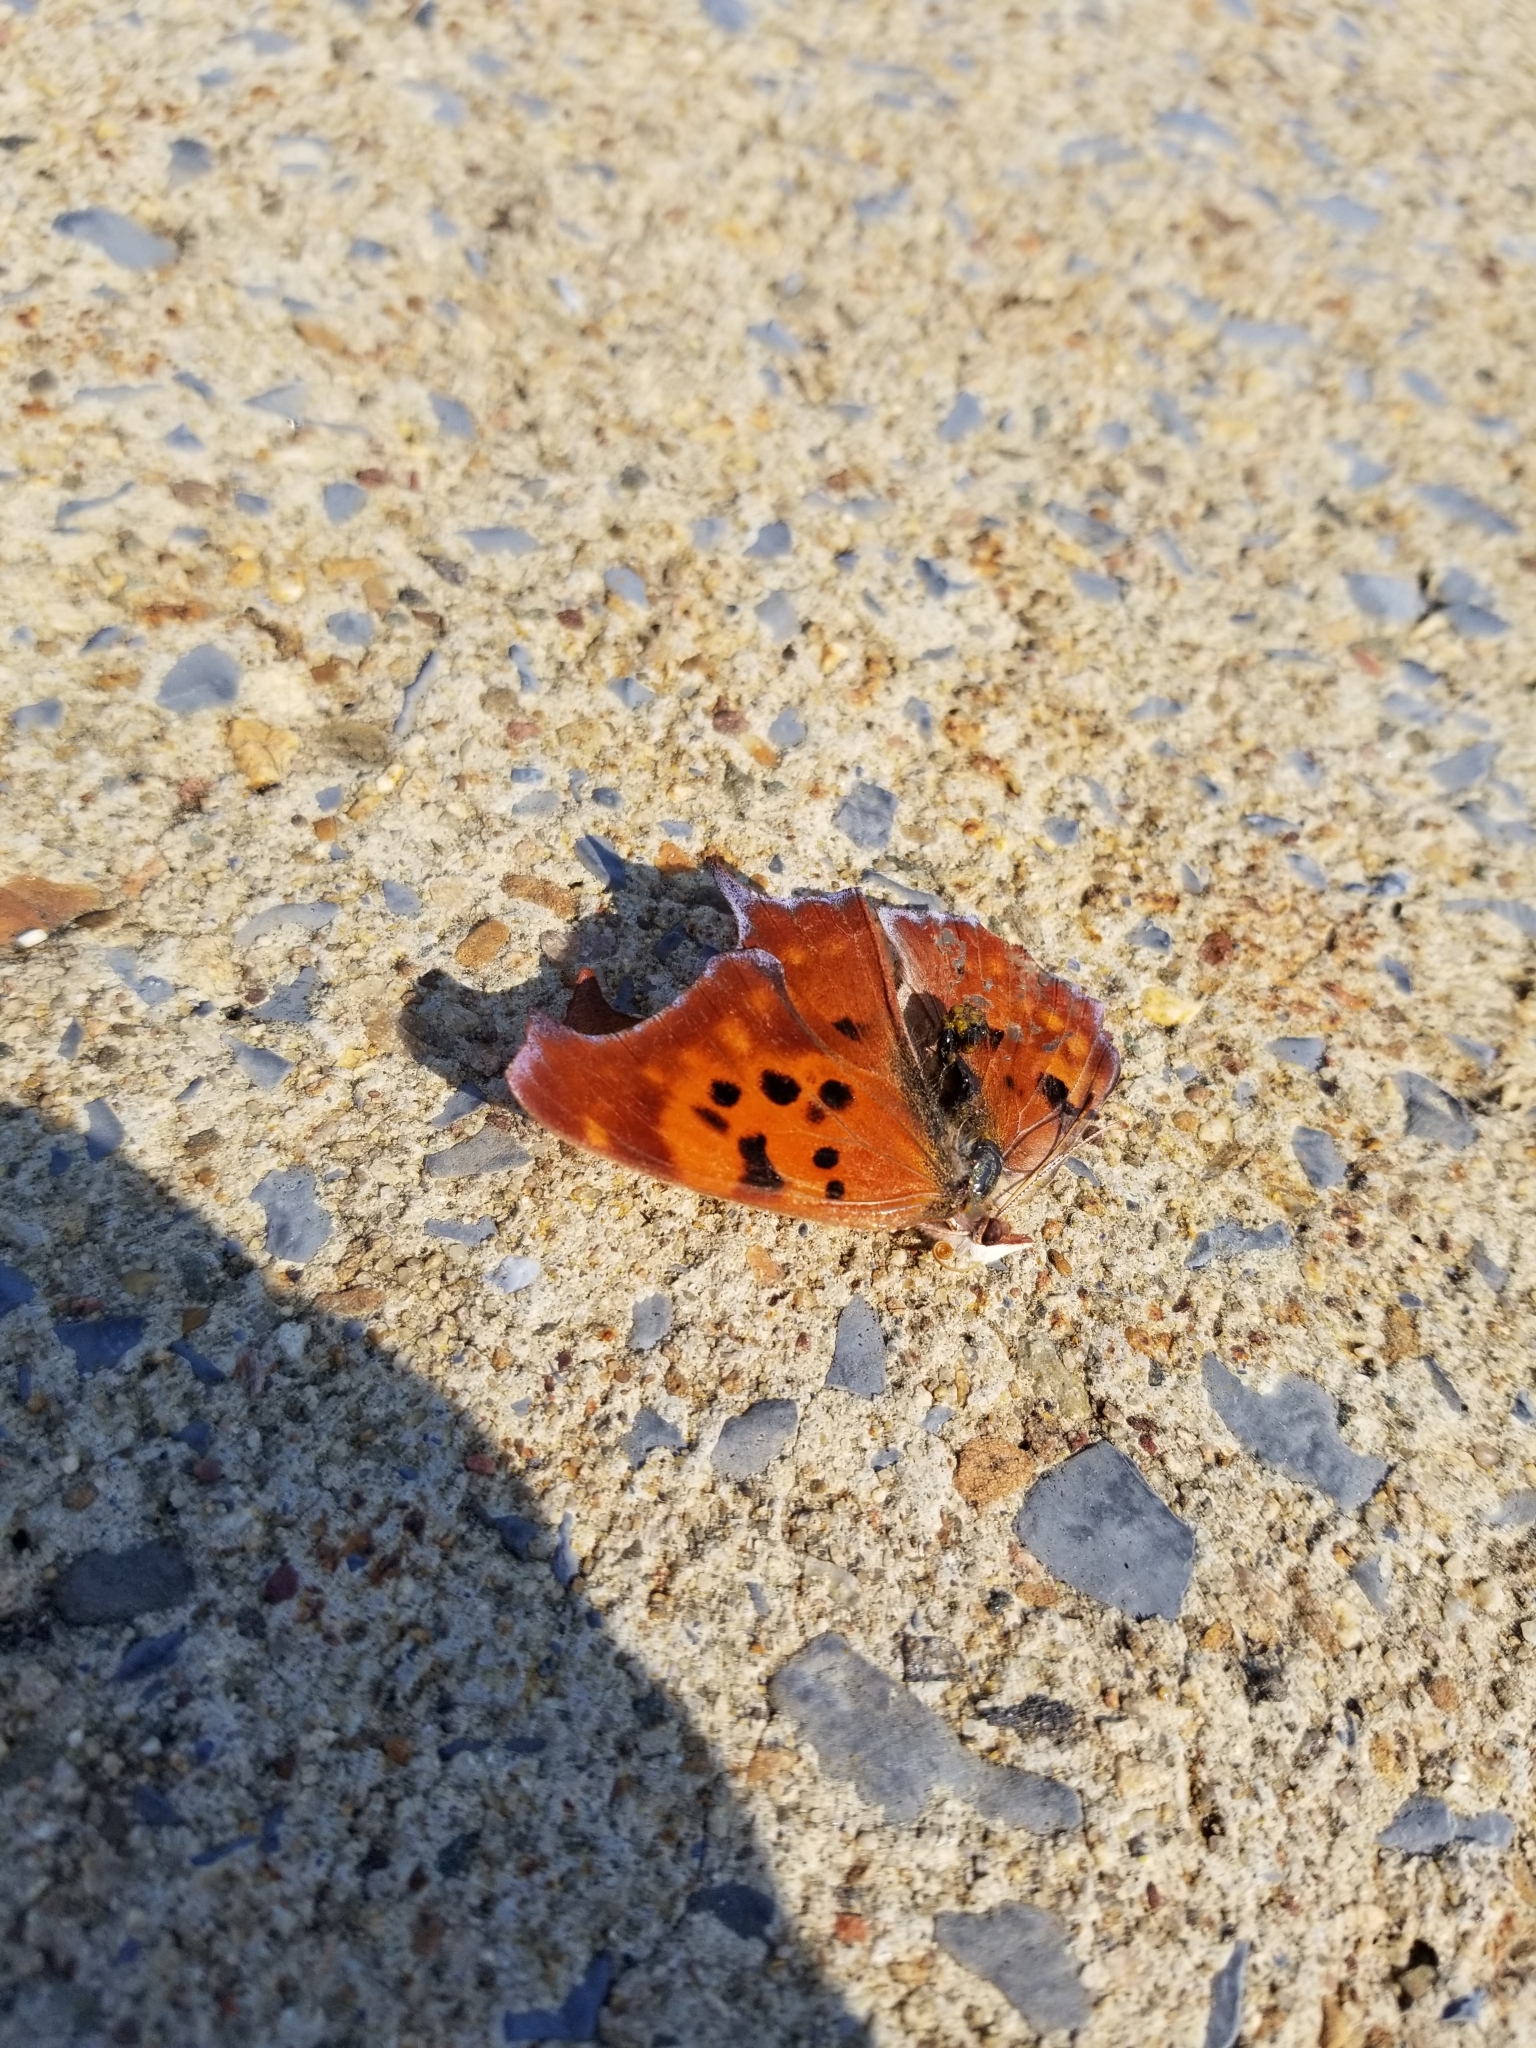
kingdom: Animalia
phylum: Arthropoda
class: Insecta
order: Lepidoptera
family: Nymphalidae
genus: Polygonia
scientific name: Polygonia interrogationis
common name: Question mark
